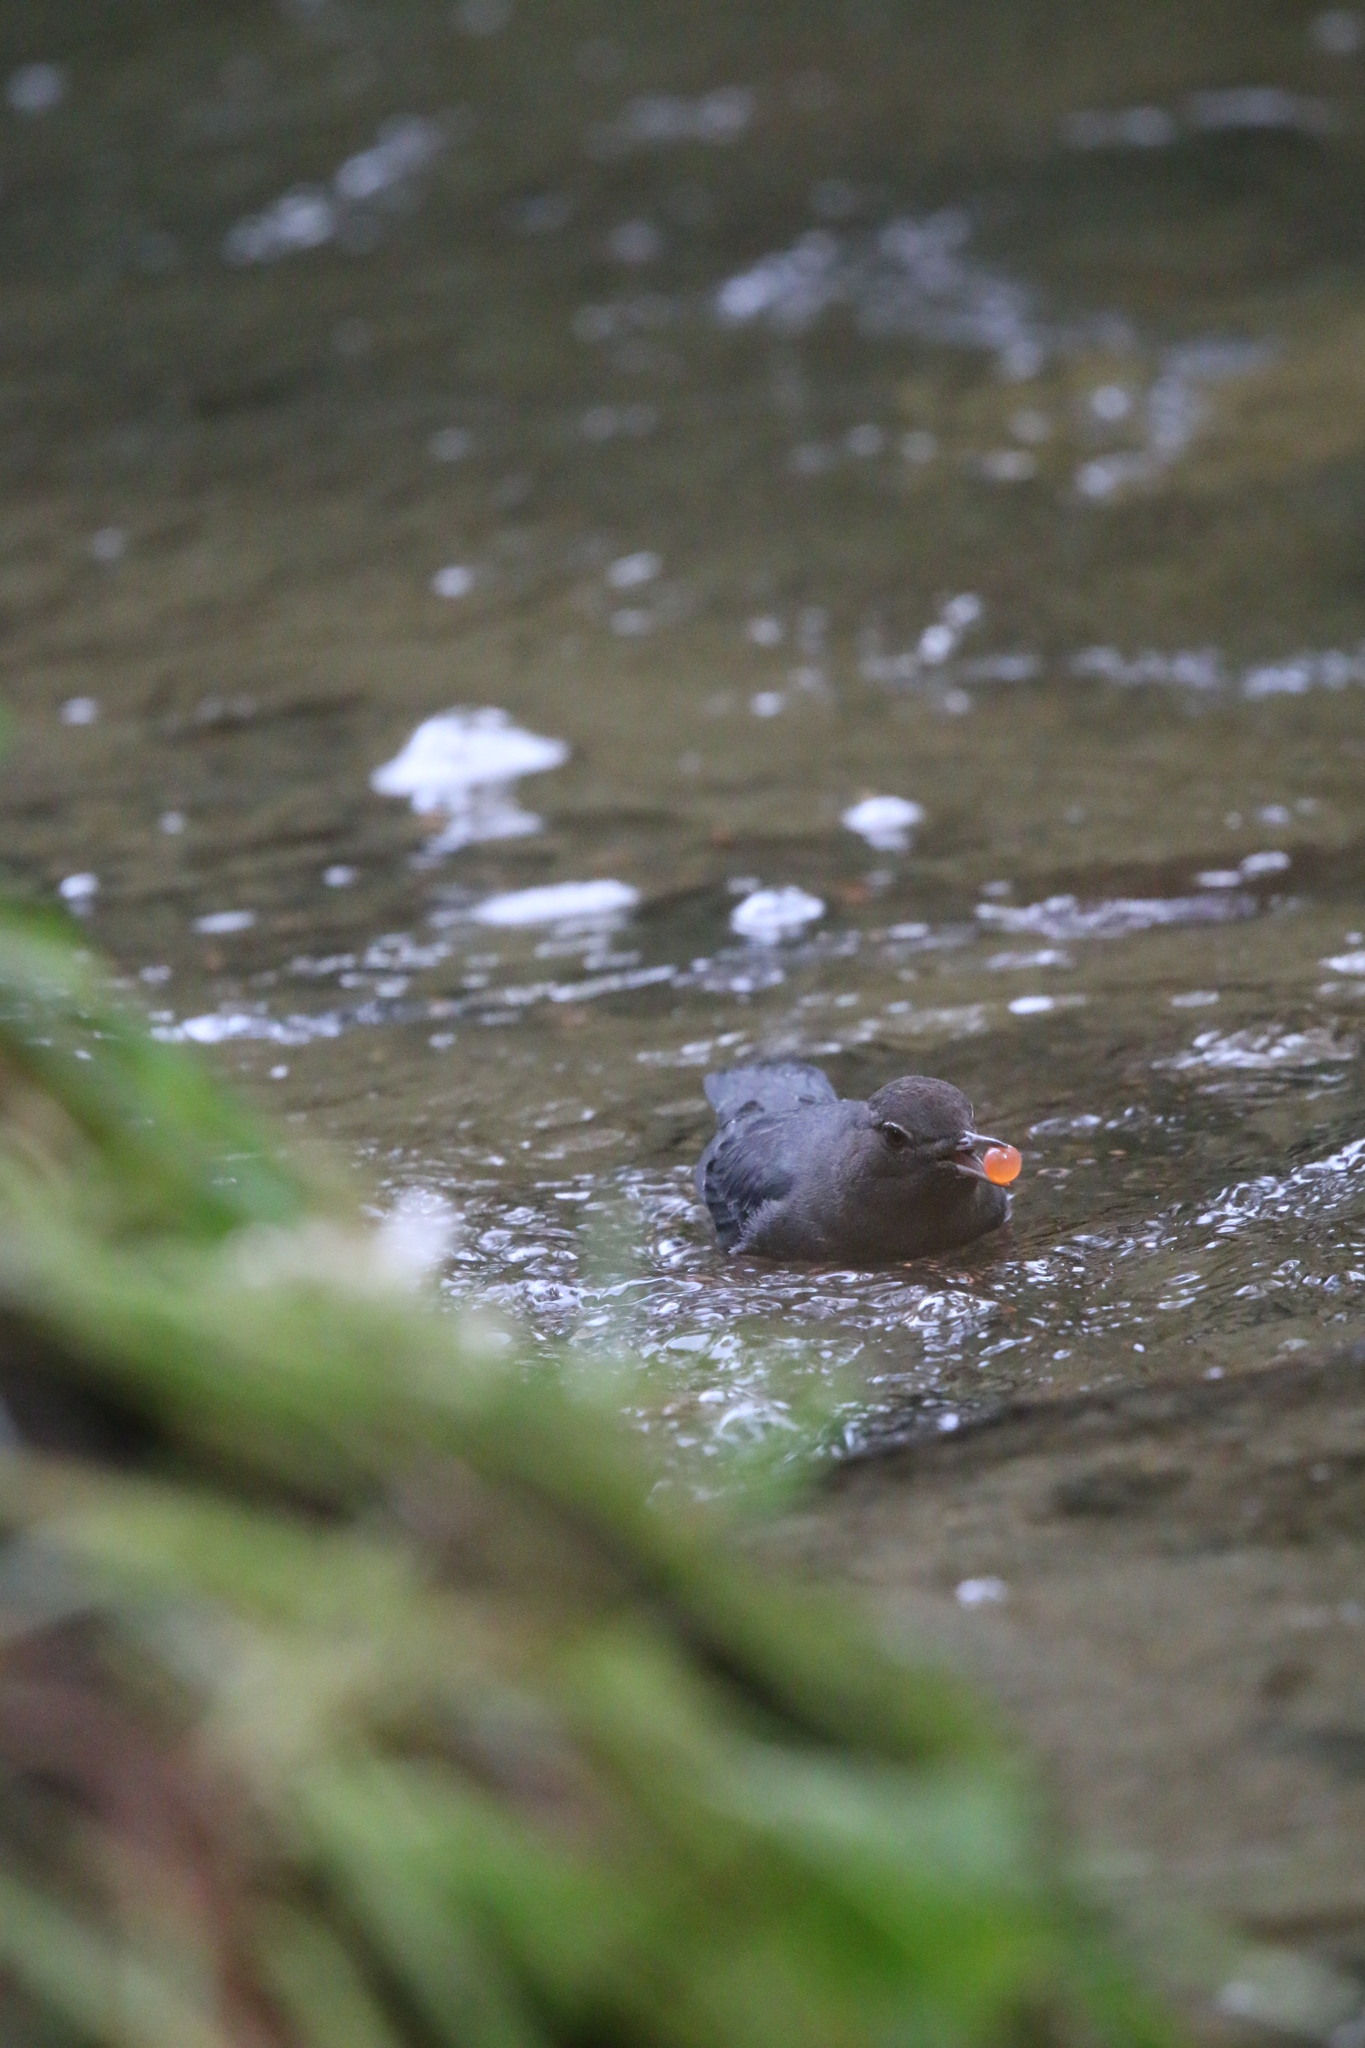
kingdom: Animalia
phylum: Chordata
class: Aves
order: Passeriformes
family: Cinclidae
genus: Cinclus
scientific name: Cinclus mexicanus
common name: American dipper
